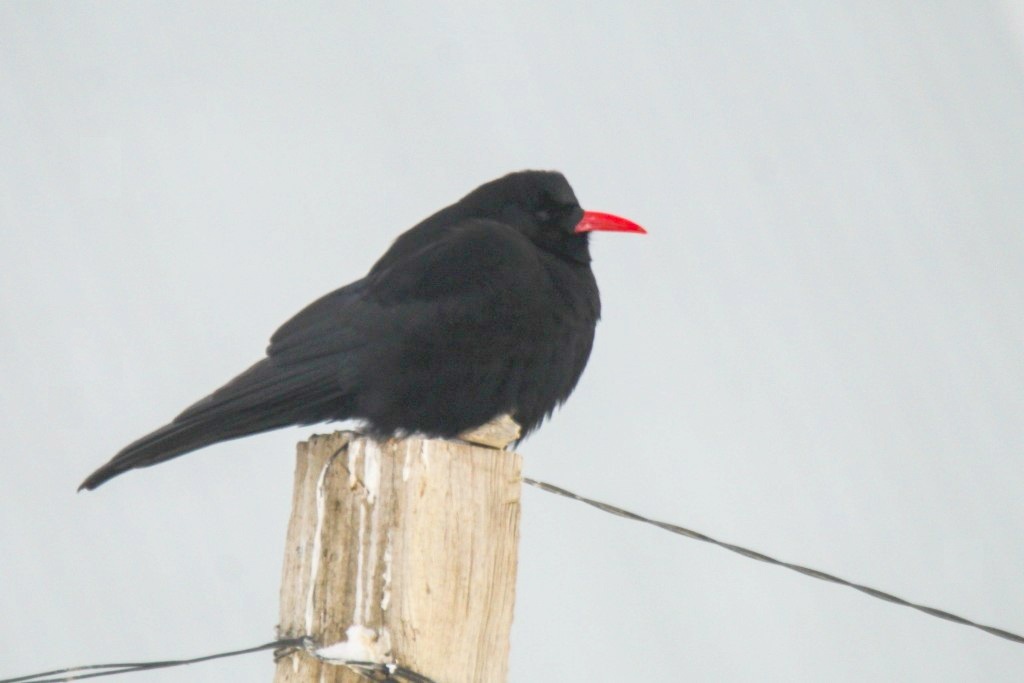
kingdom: Animalia
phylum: Chordata
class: Aves
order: Passeriformes
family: Corvidae
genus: Pyrrhocorax
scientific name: Pyrrhocorax pyrrhocorax
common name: Red-billed chough
